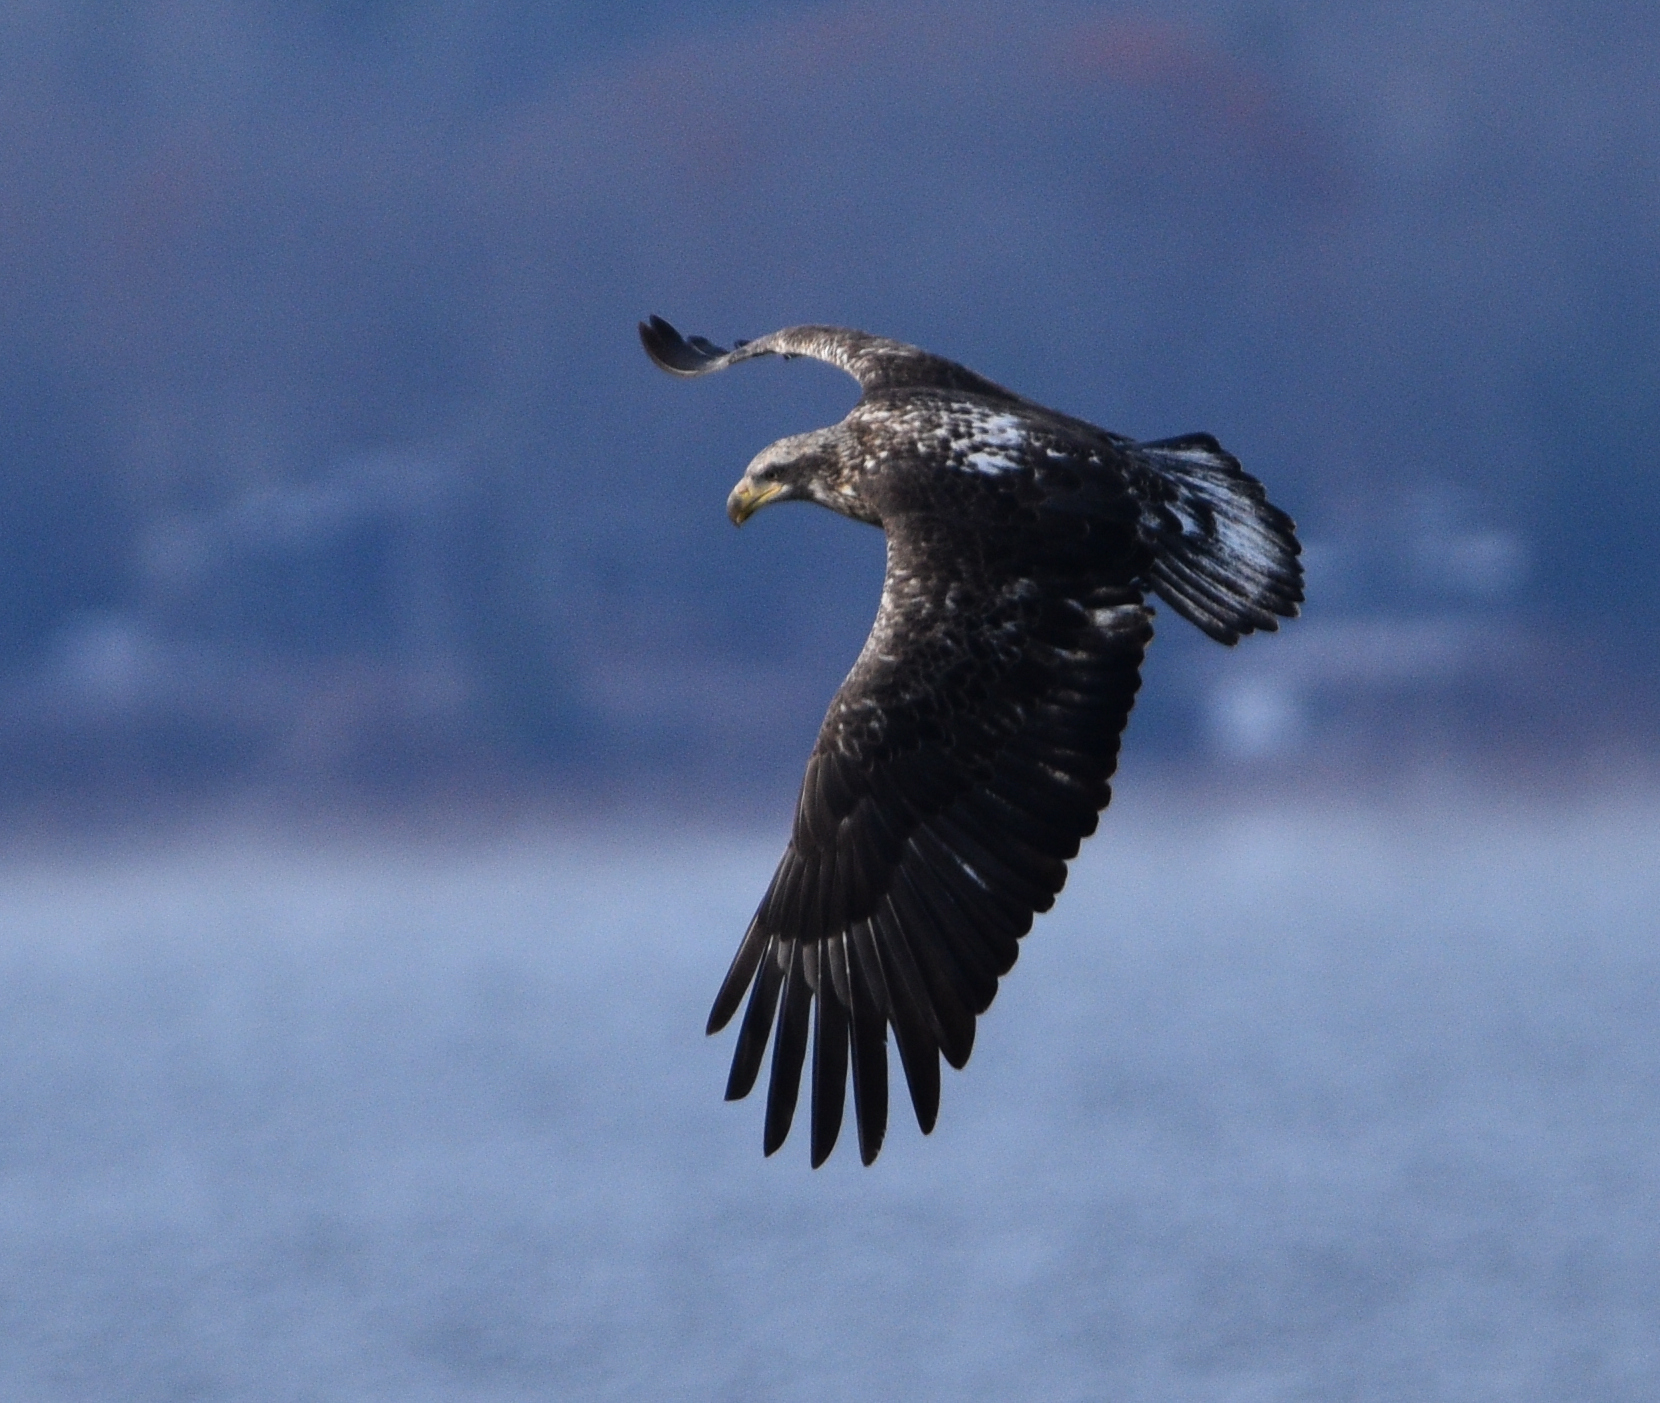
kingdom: Animalia
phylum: Chordata
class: Aves
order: Accipitriformes
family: Accipitridae
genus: Haliaeetus
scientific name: Haliaeetus leucocephalus
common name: Bald eagle
